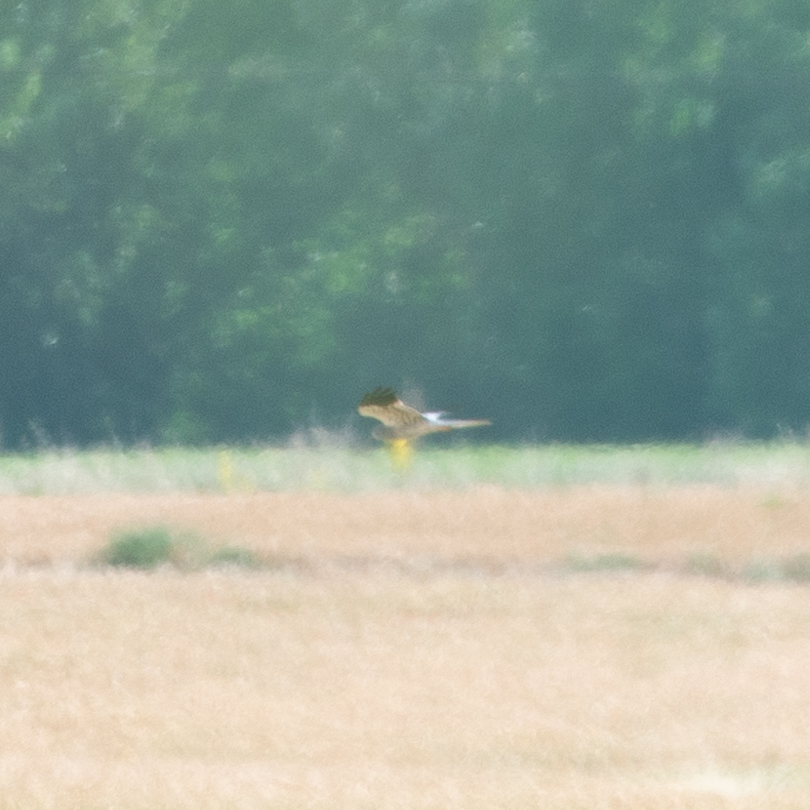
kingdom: Animalia
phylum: Chordata
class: Aves
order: Accipitriformes
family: Accipitridae
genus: Circus
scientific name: Circus pygargus
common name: Montagu's harrier
